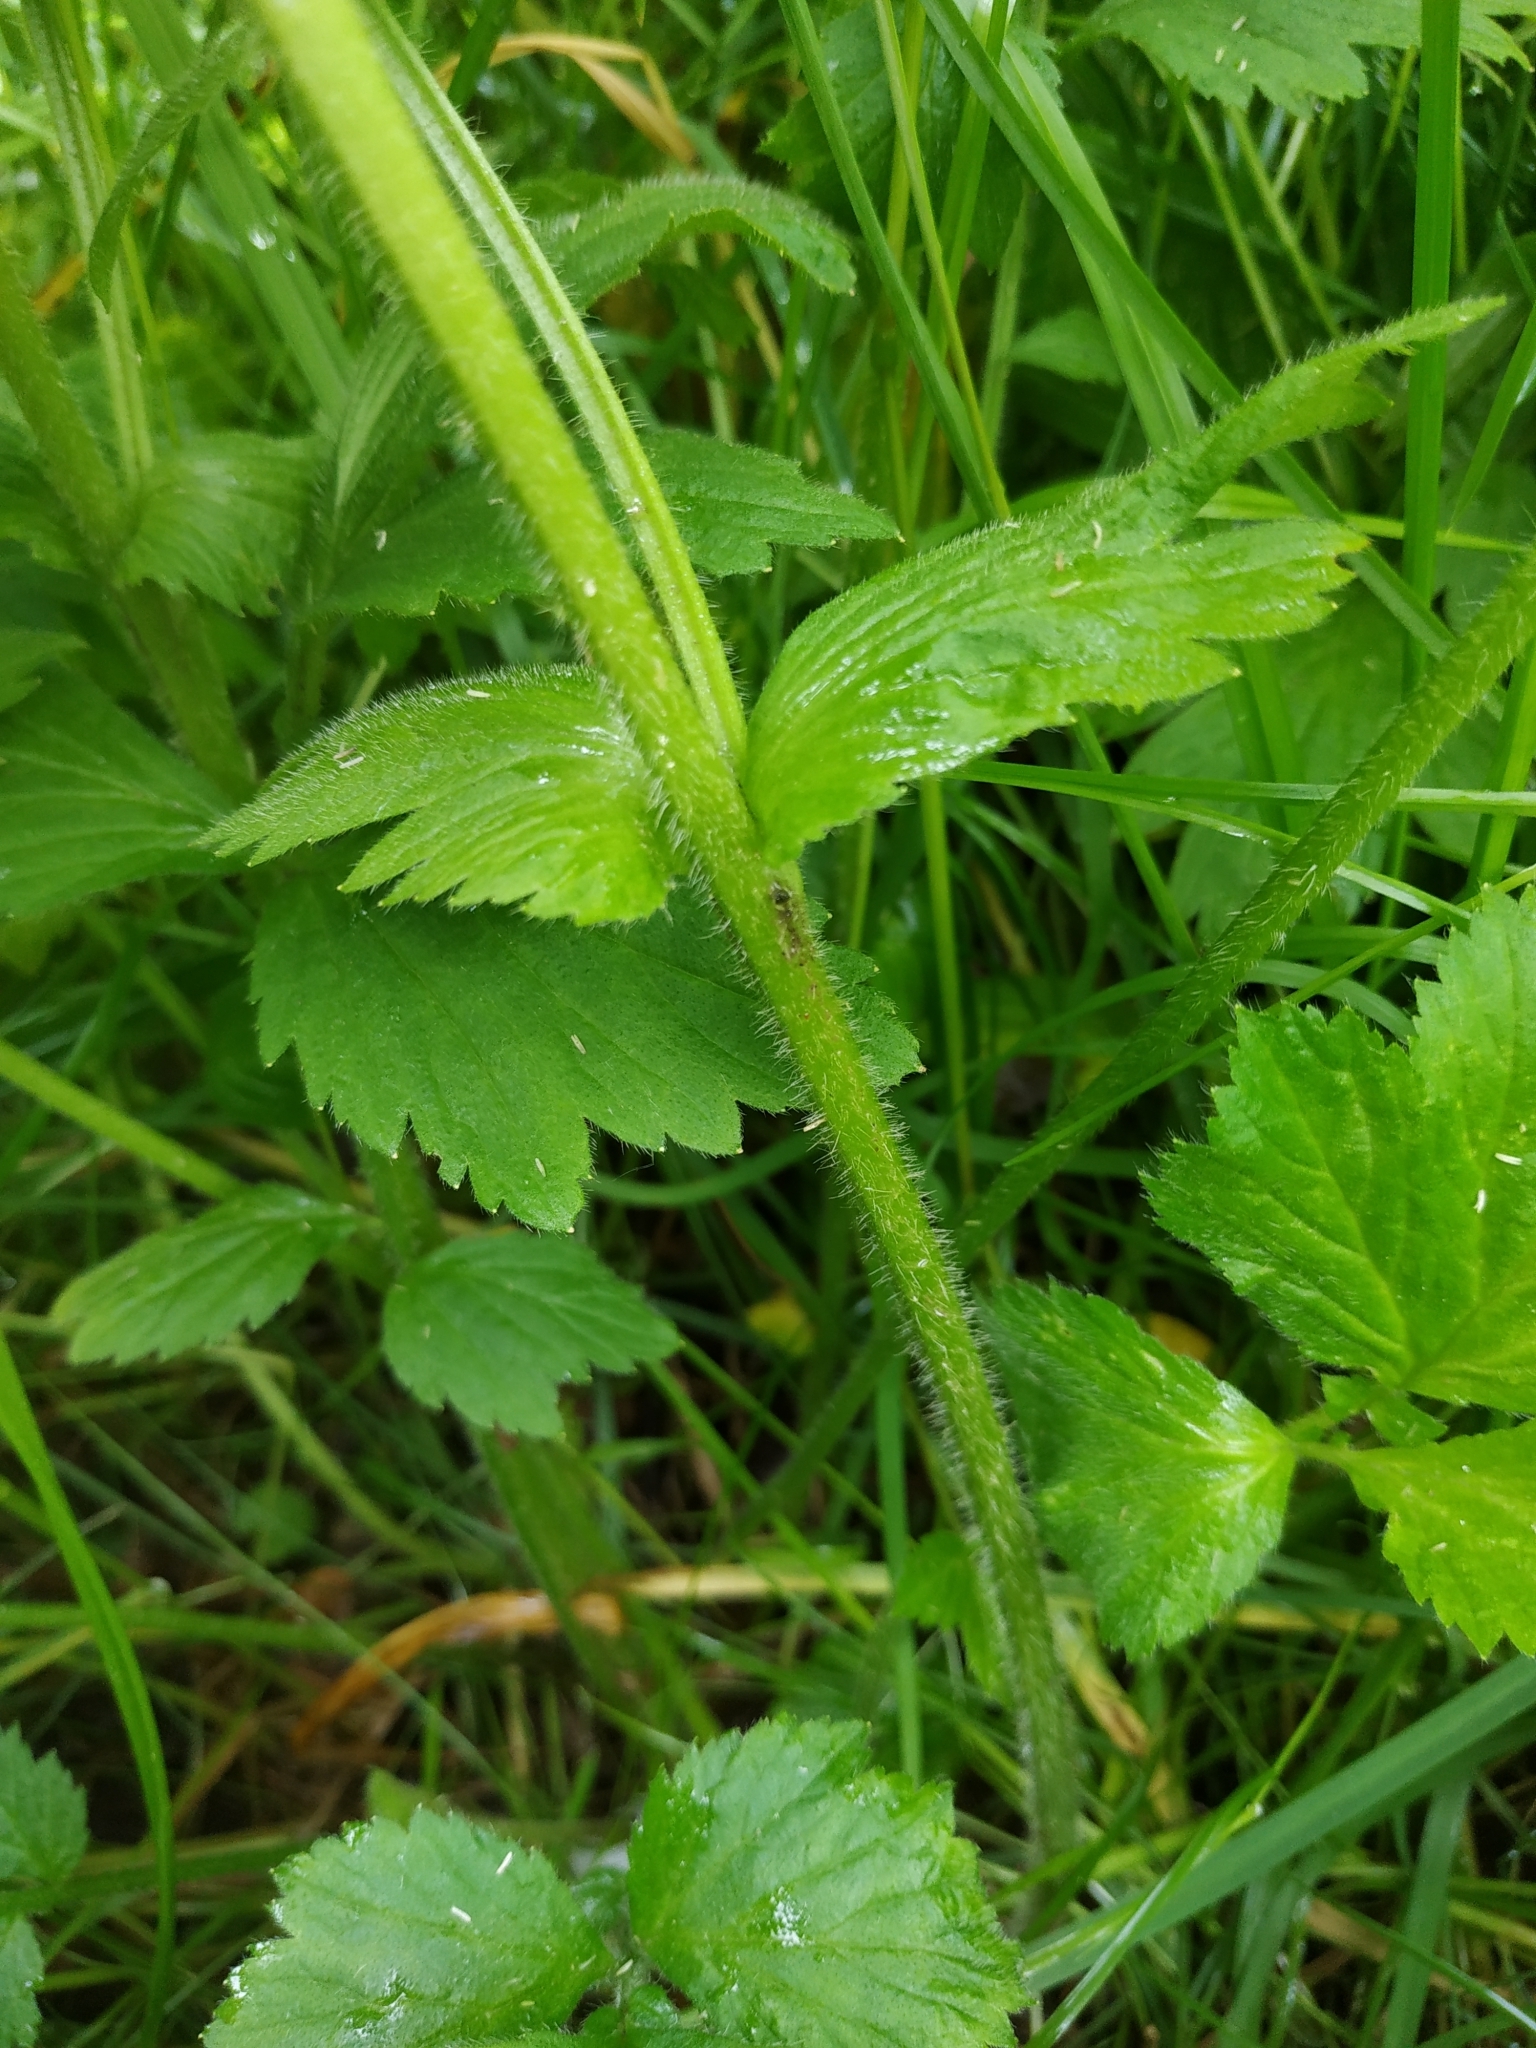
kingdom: Plantae
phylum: Tracheophyta
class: Magnoliopsida
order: Rosales
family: Rosaceae
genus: Geum
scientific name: Geum aleppicum
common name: Yellow avens
